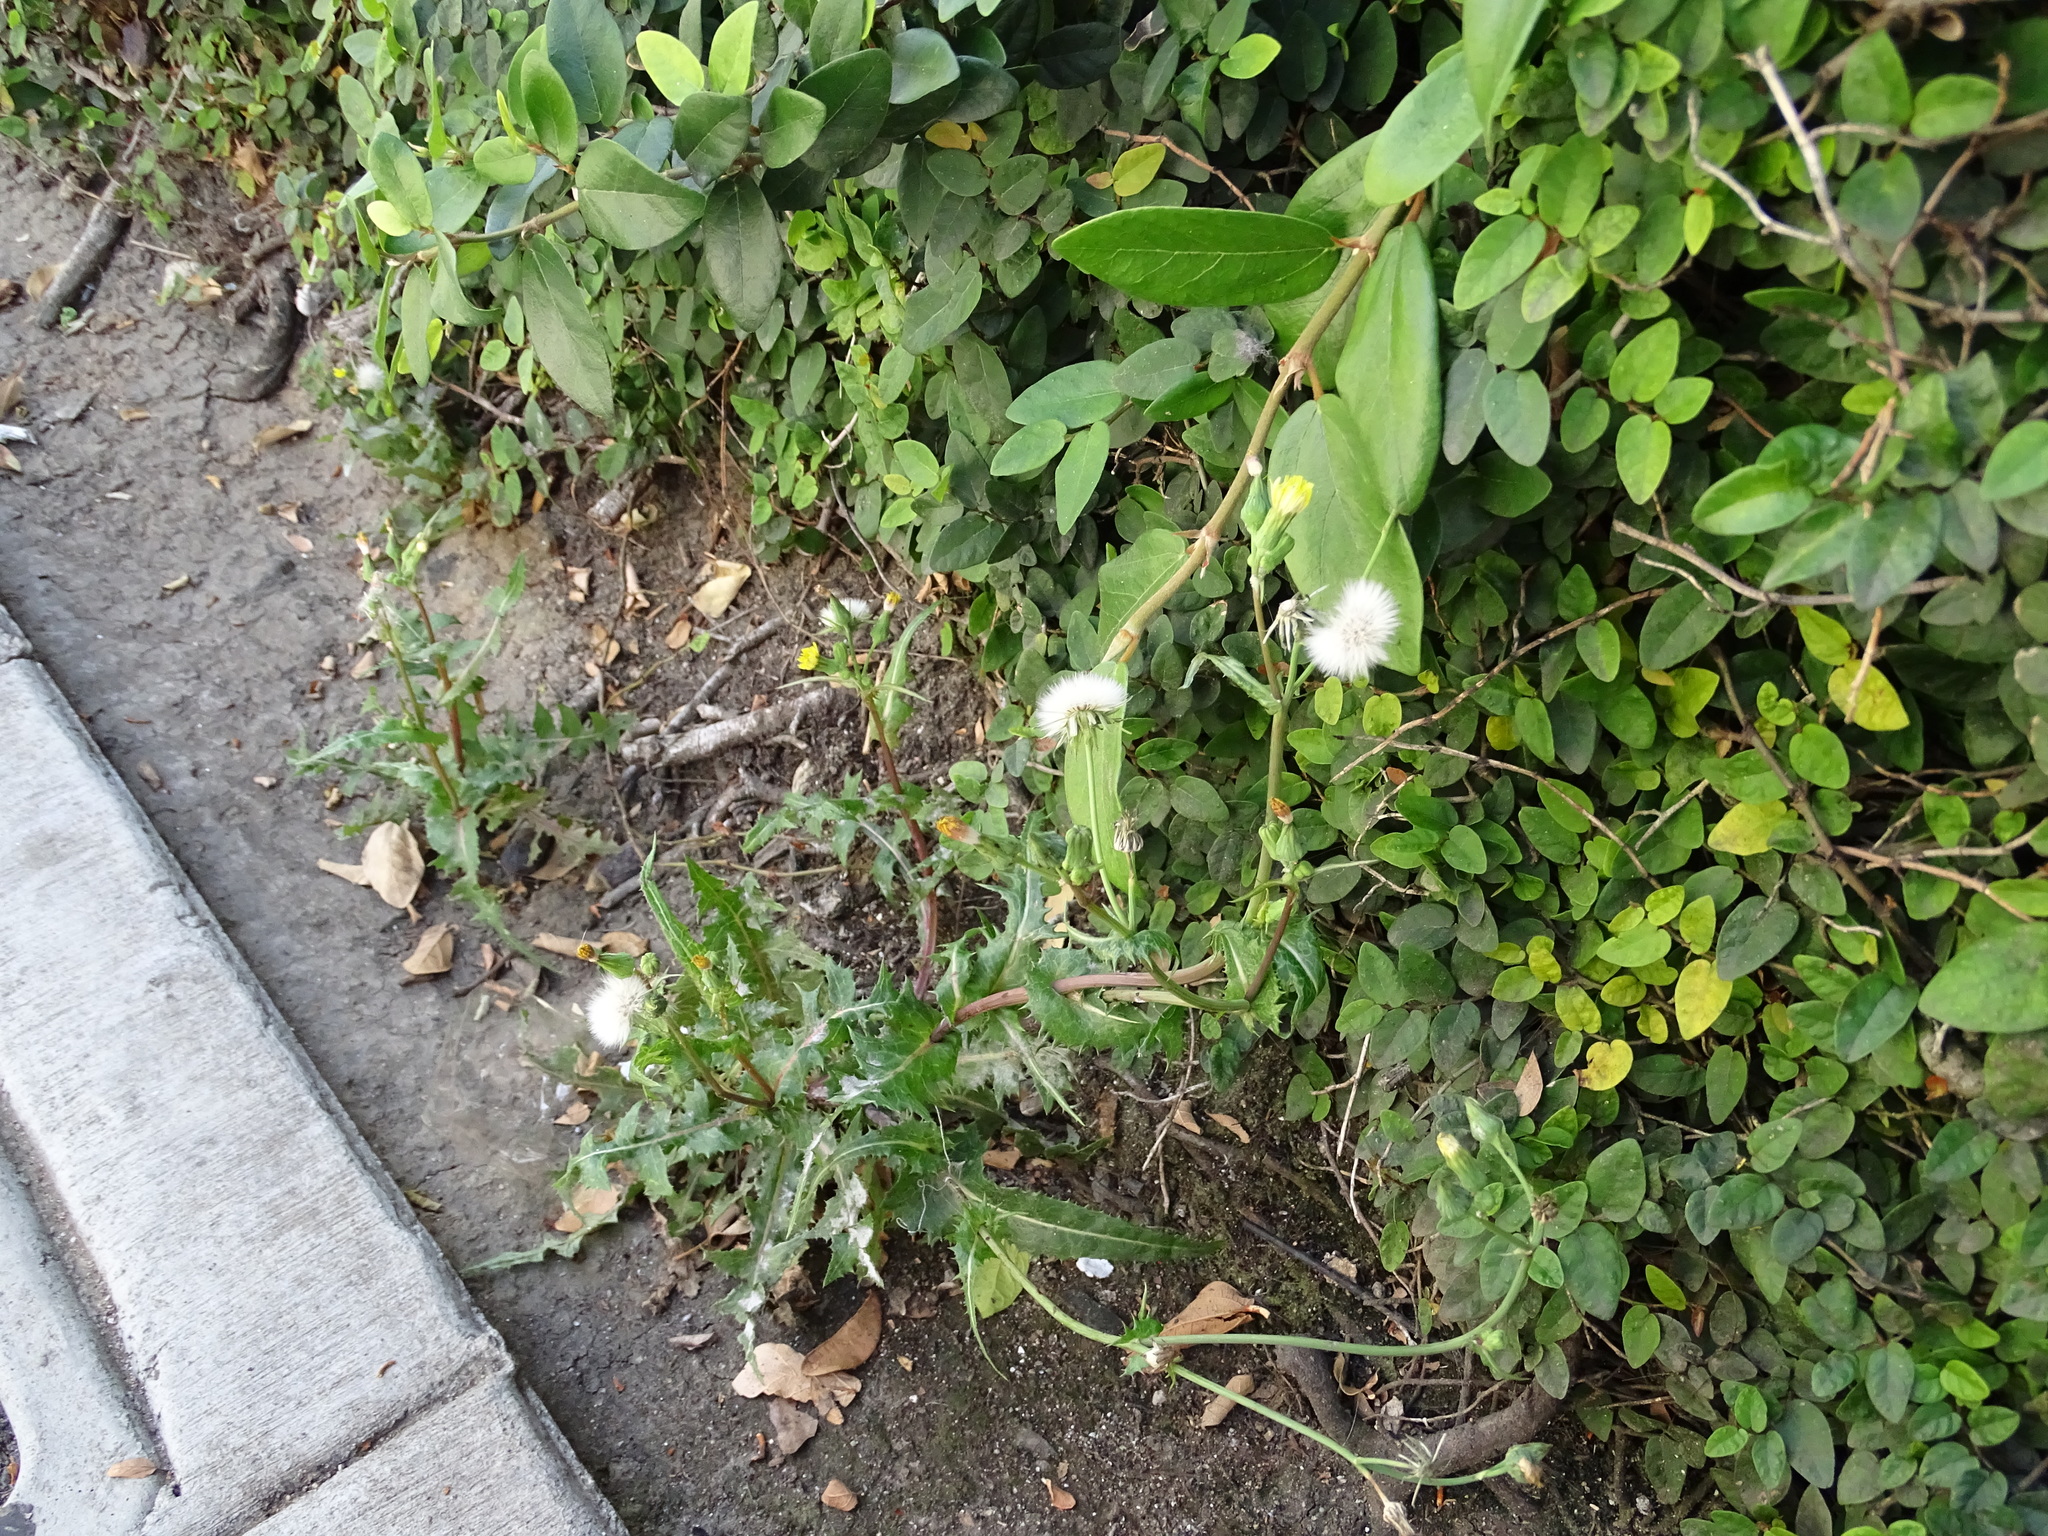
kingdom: Plantae
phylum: Tracheophyta
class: Magnoliopsida
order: Asterales
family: Asteraceae
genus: Sonchus
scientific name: Sonchus oleraceus
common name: Common sowthistle
